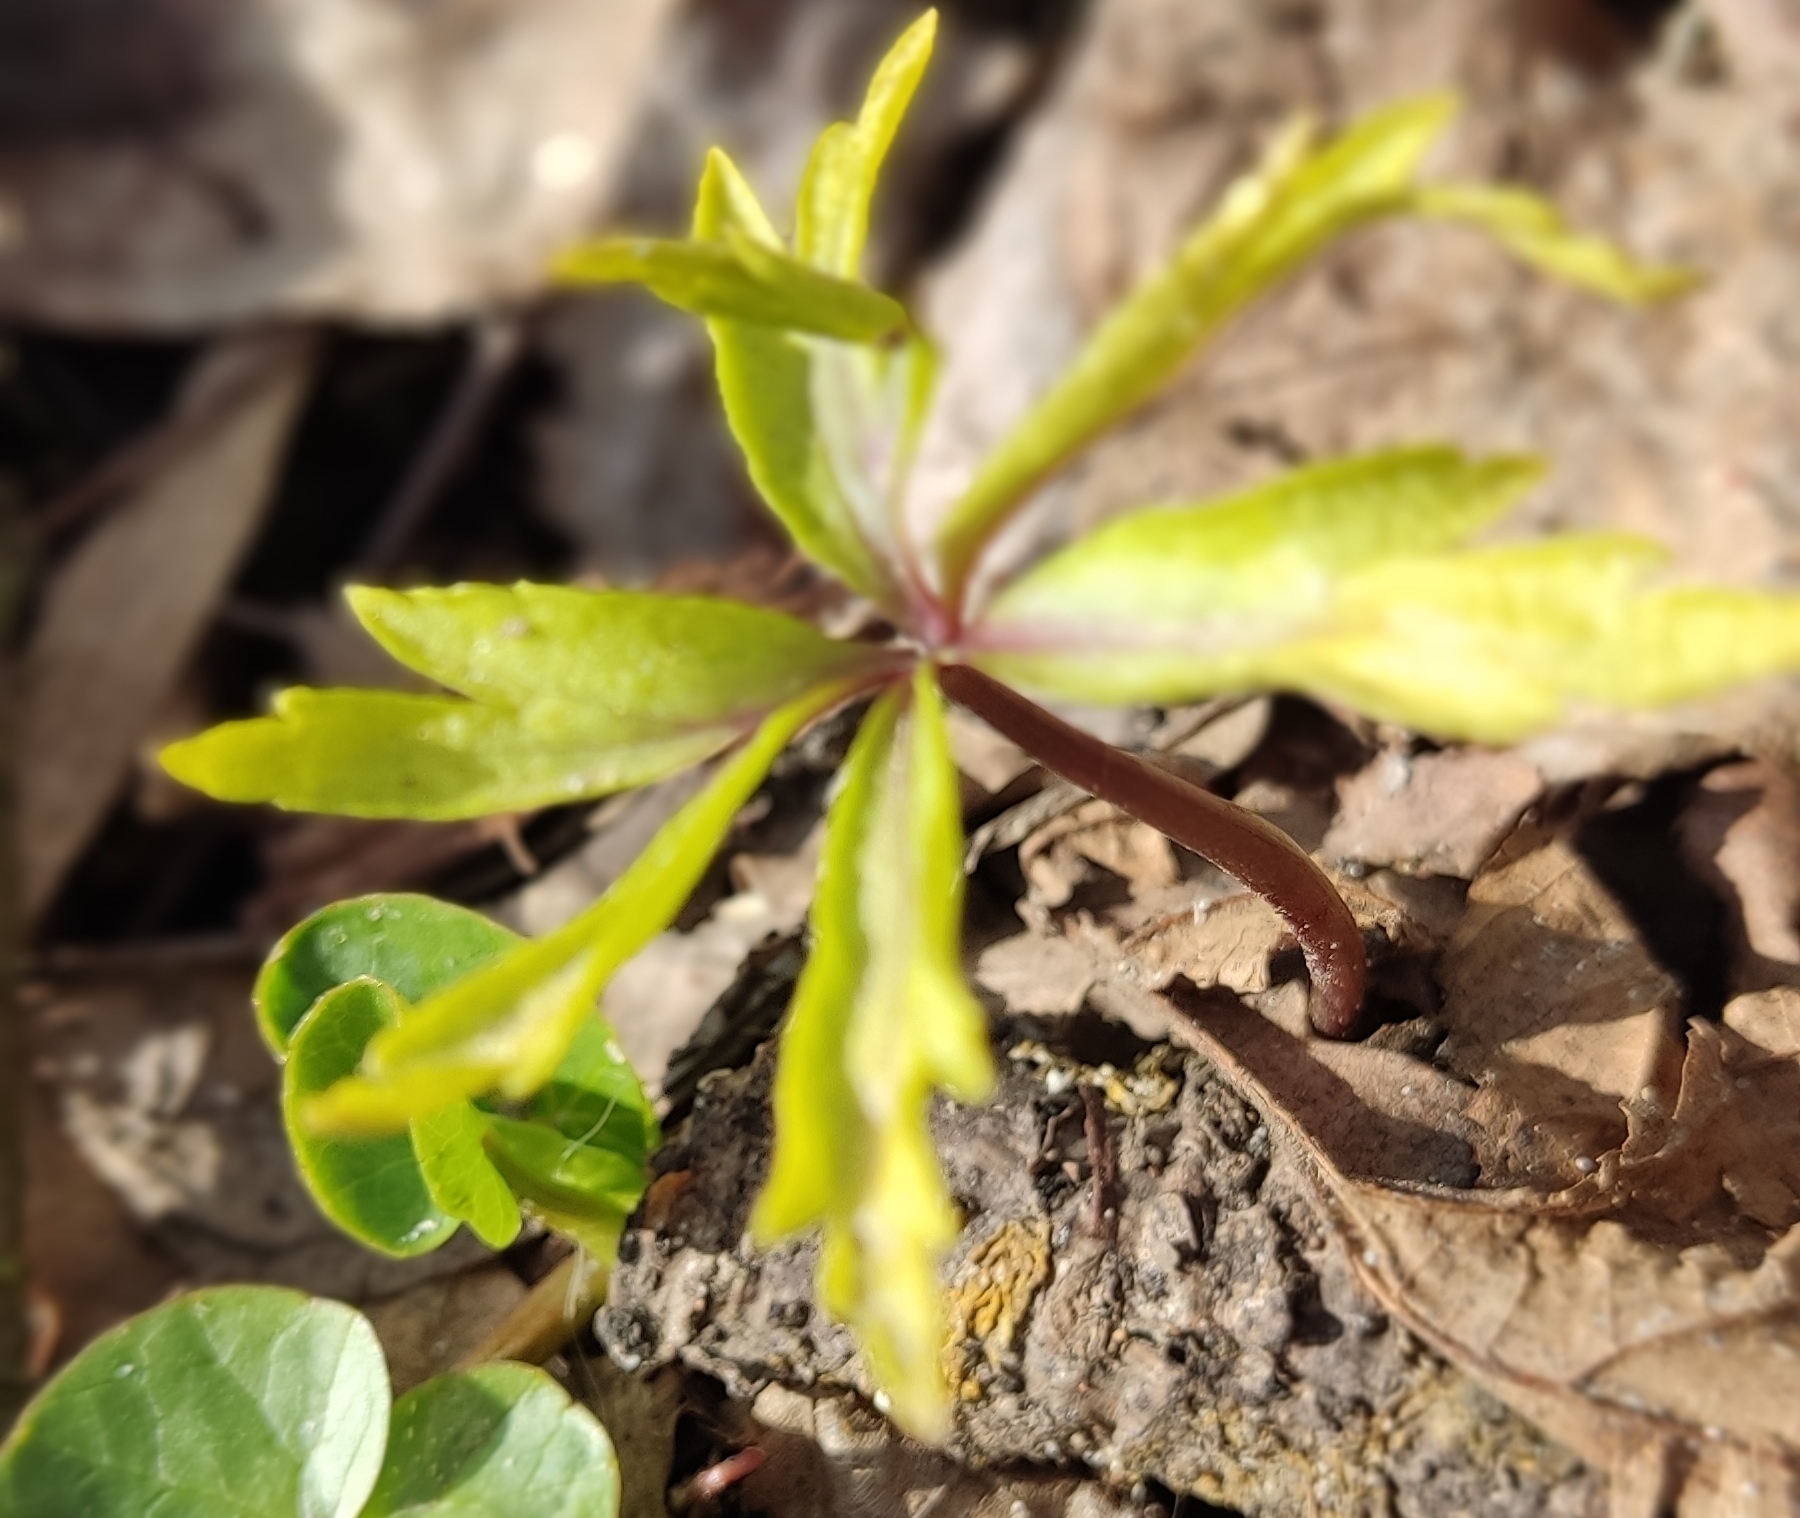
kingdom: Plantae
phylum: Tracheophyta
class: Magnoliopsida
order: Ranunculales
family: Ranunculaceae
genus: Anemone
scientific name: Anemone ranunculoides
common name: Yellow anemone
